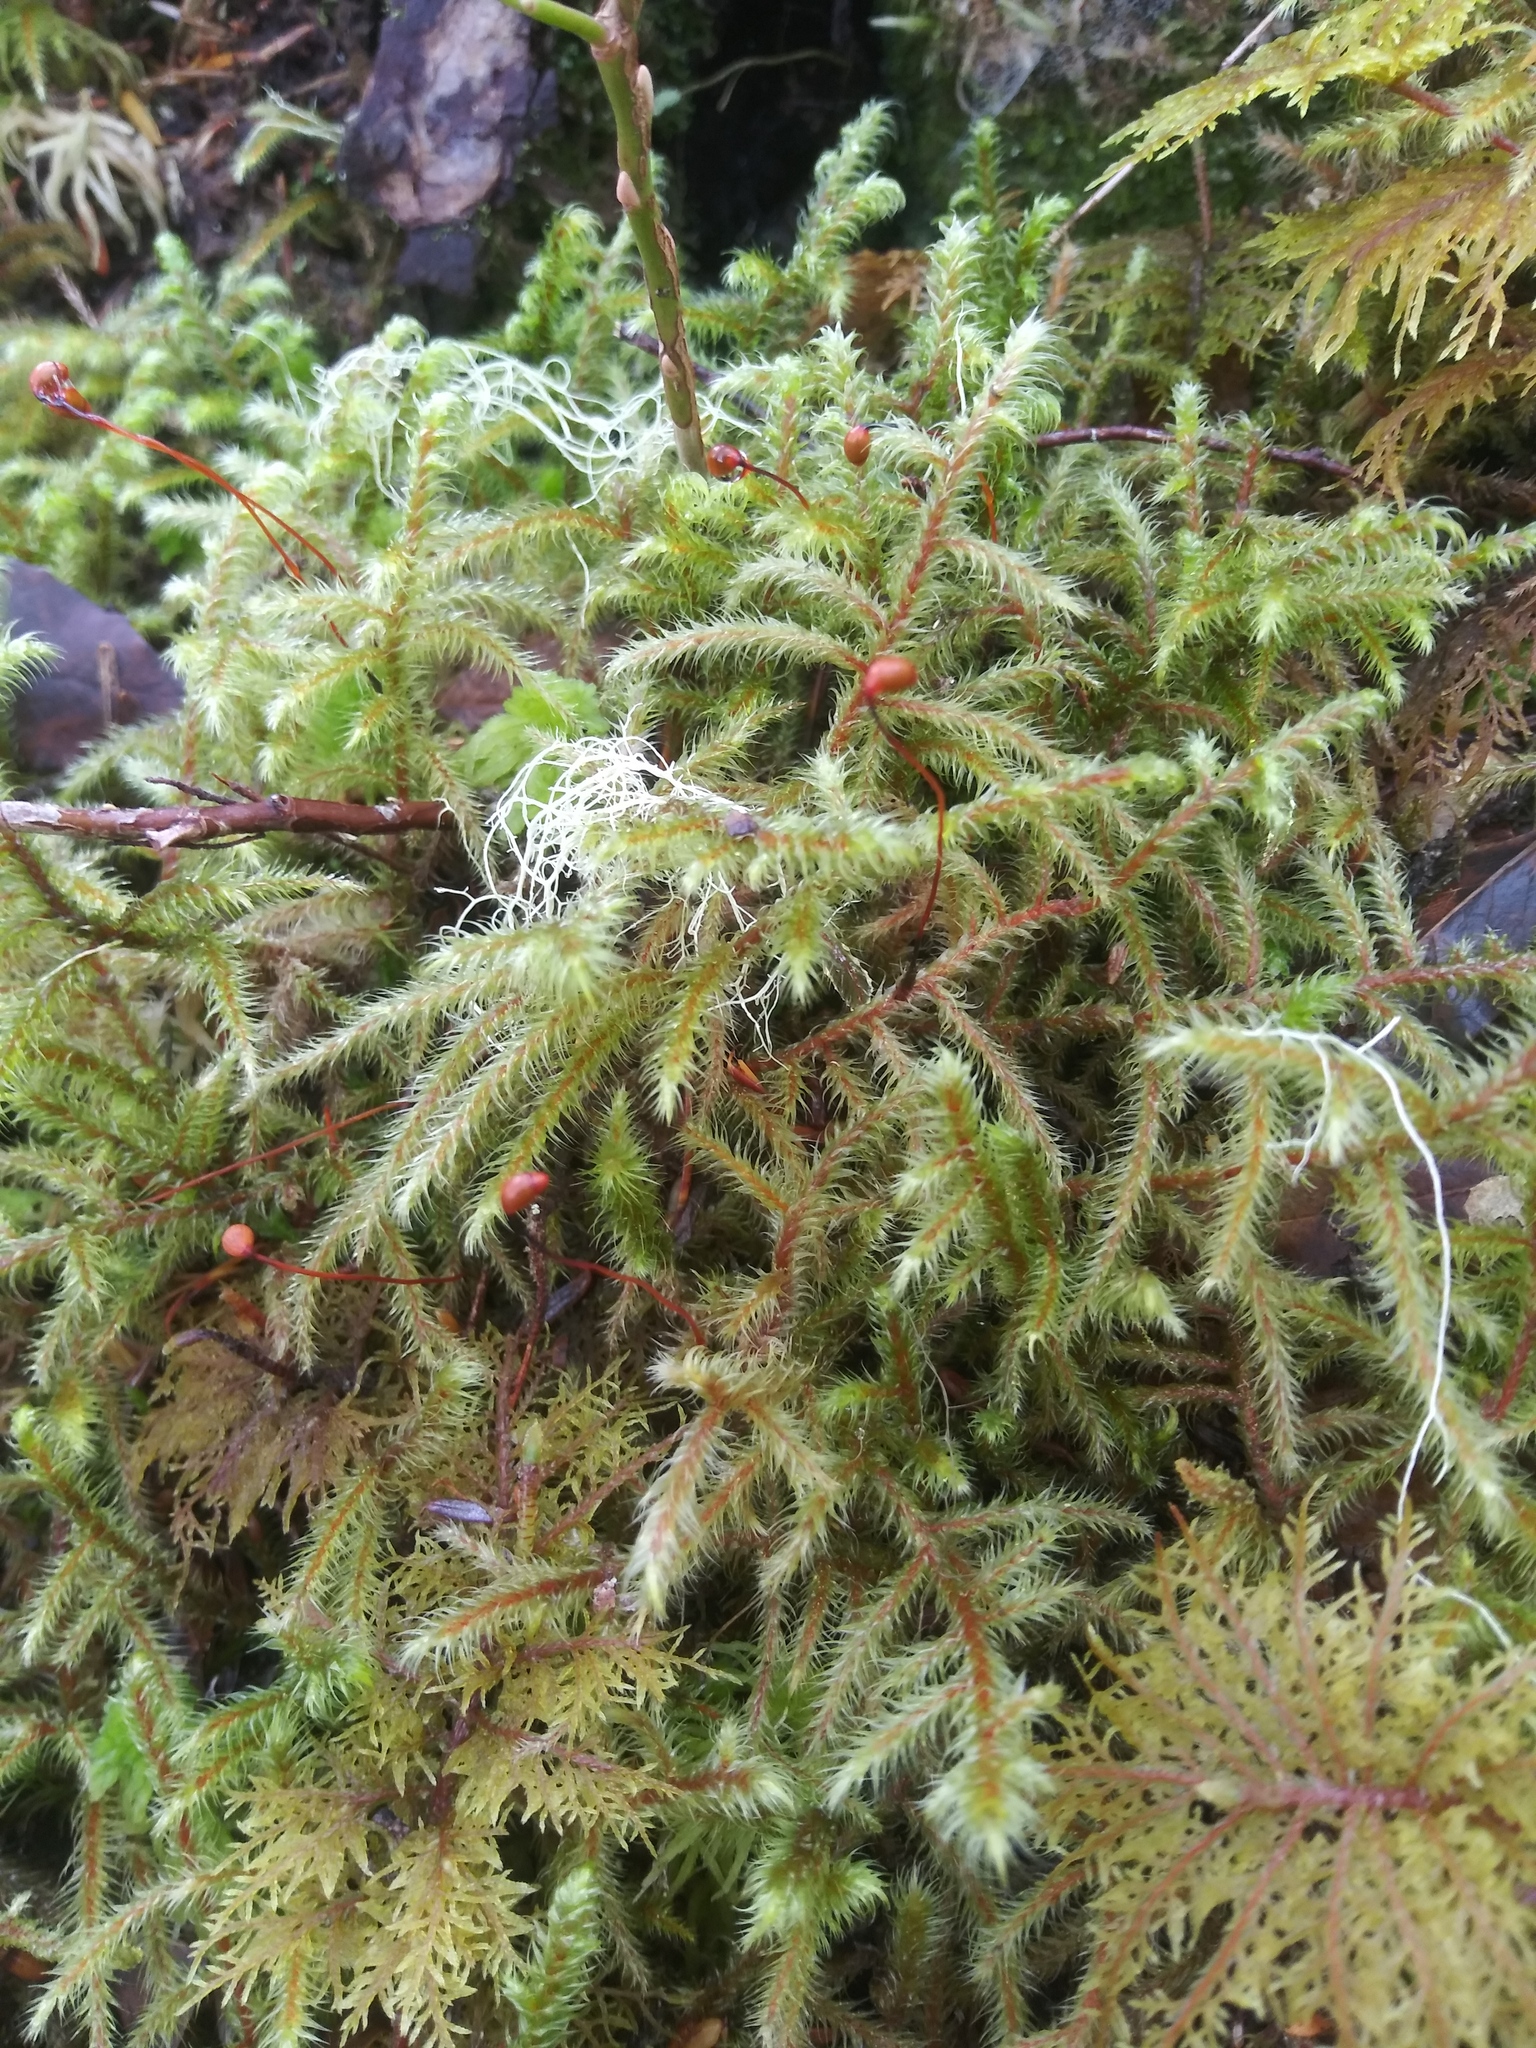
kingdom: Plantae
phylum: Bryophyta
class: Bryopsida
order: Hypnales
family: Hylocomiaceae
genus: Rhytidiadelphus
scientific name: Rhytidiadelphus loreus
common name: Lanky moss
